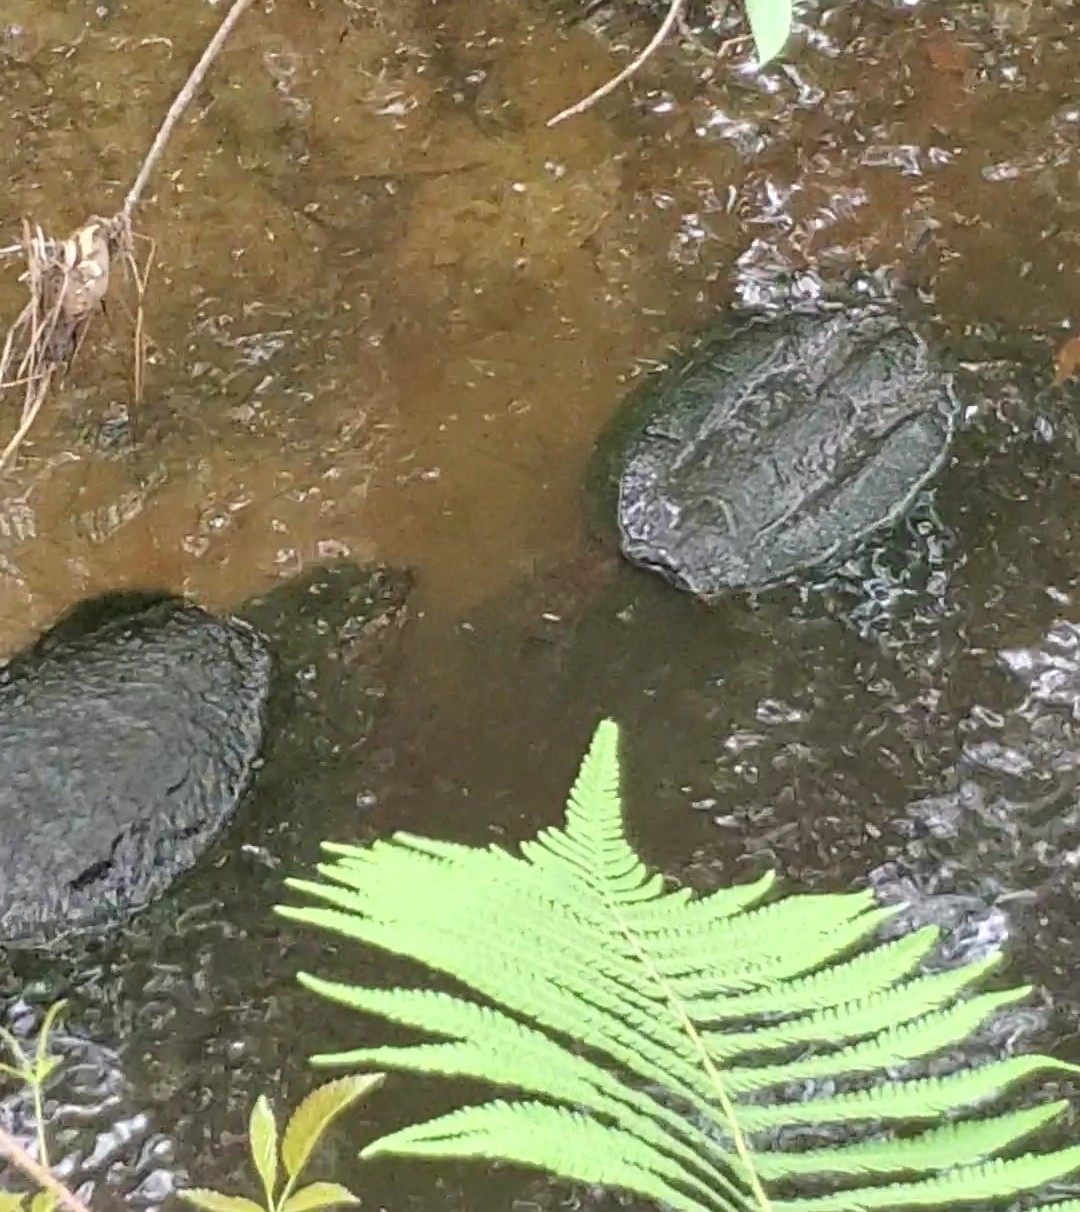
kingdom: Animalia
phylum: Chordata
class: Testudines
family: Chelydridae
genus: Chelydra
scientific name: Chelydra serpentina
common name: Common snapping turtle
